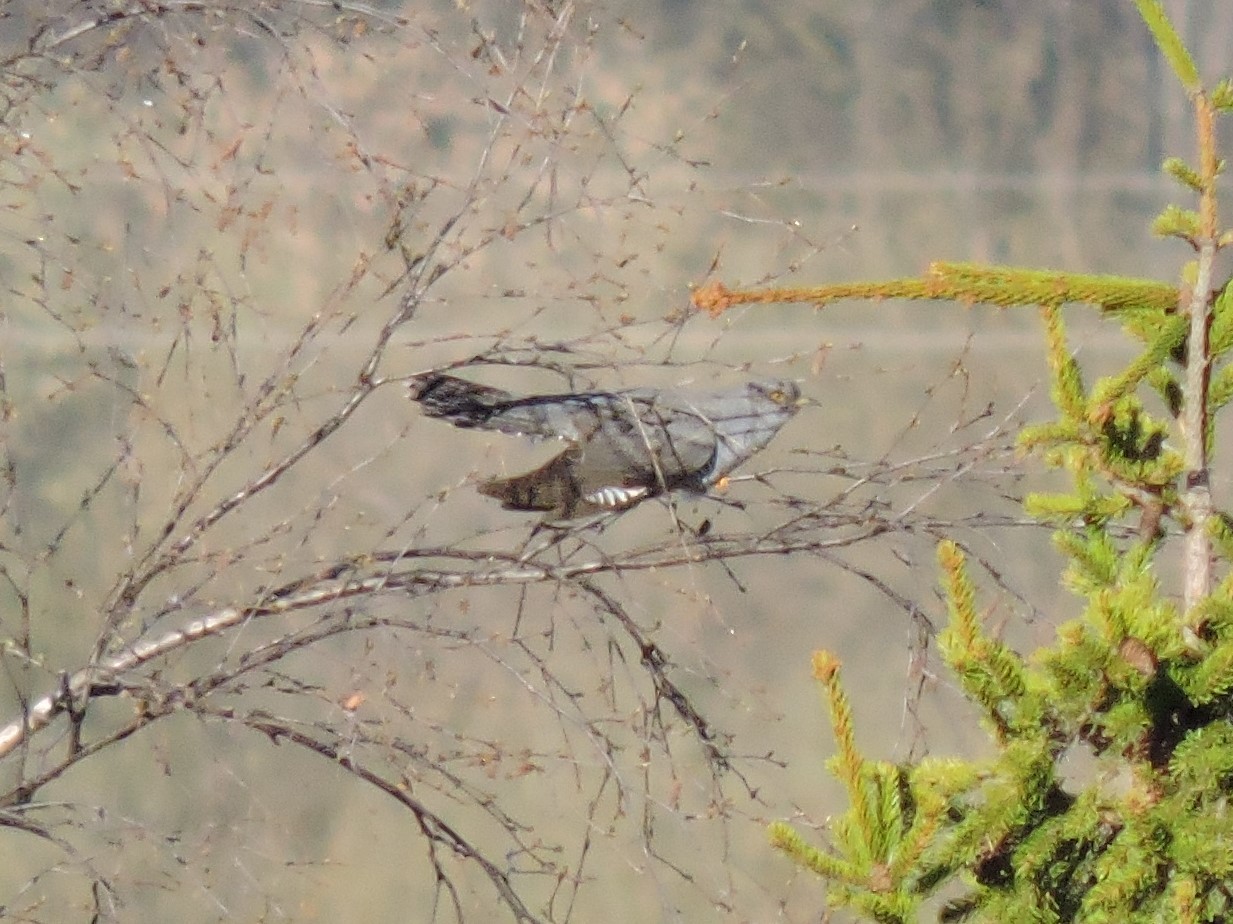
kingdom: Animalia
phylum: Chordata
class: Aves
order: Cuculiformes
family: Cuculidae
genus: Cuculus
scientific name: Cuculus canorus
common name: Common cuckoo
